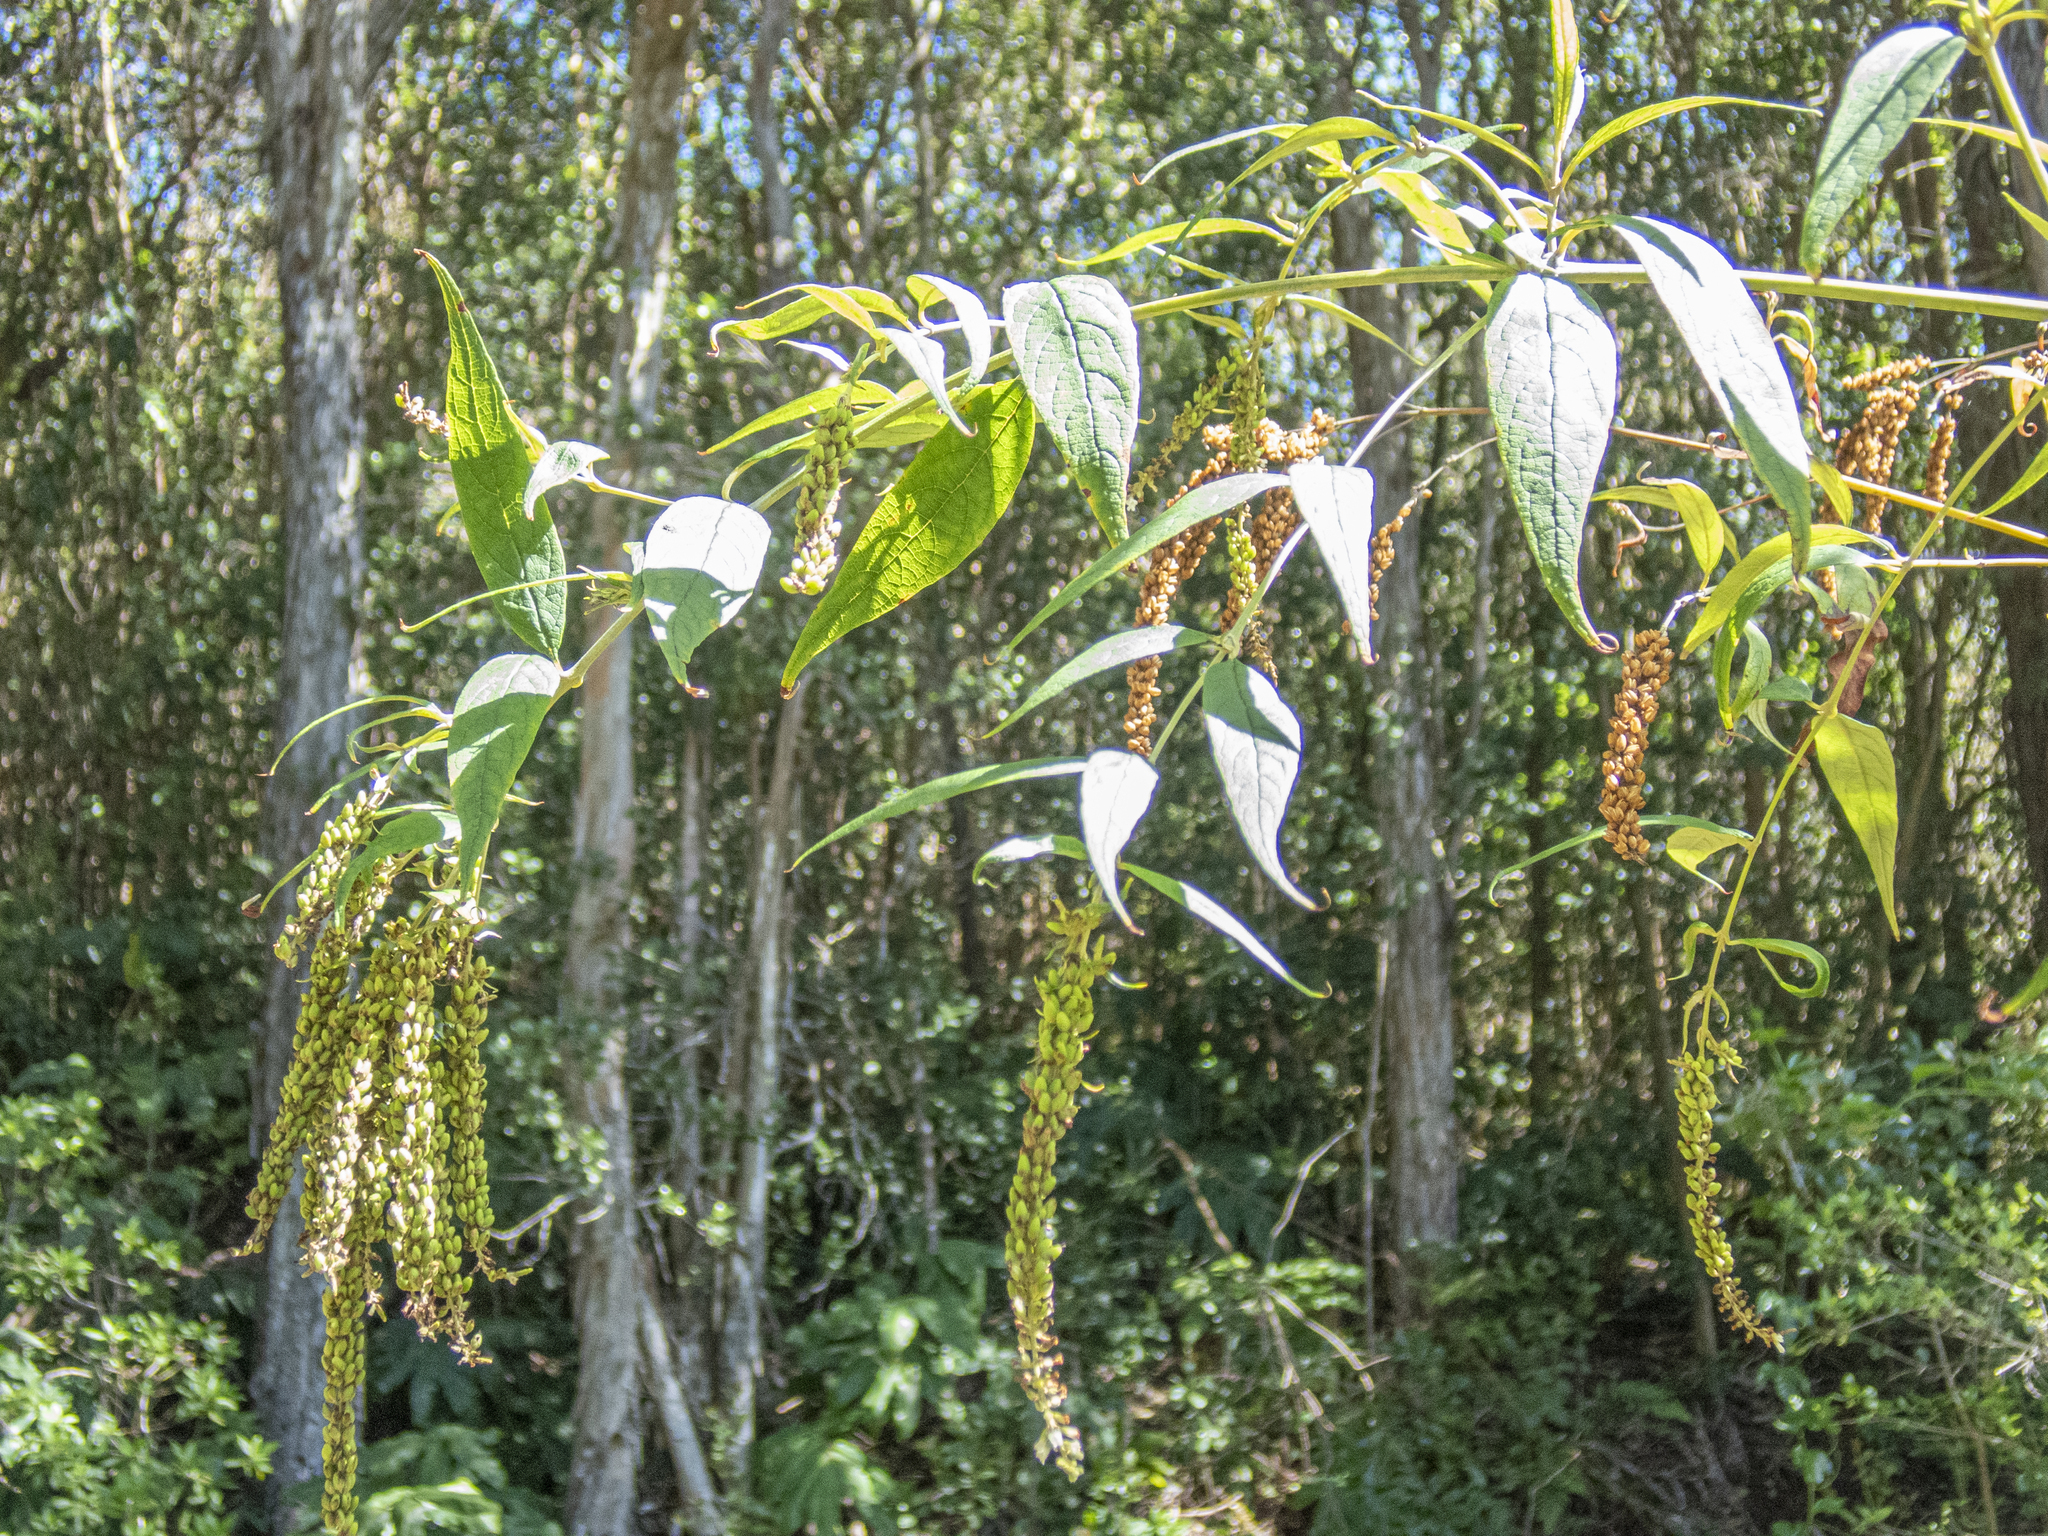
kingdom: Plantae
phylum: Tracheophyta
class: Magnoliopsida
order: Lamiales
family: Scrophulariaceae
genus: Buddleja
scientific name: Buddleja asiatica
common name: Dog tail
